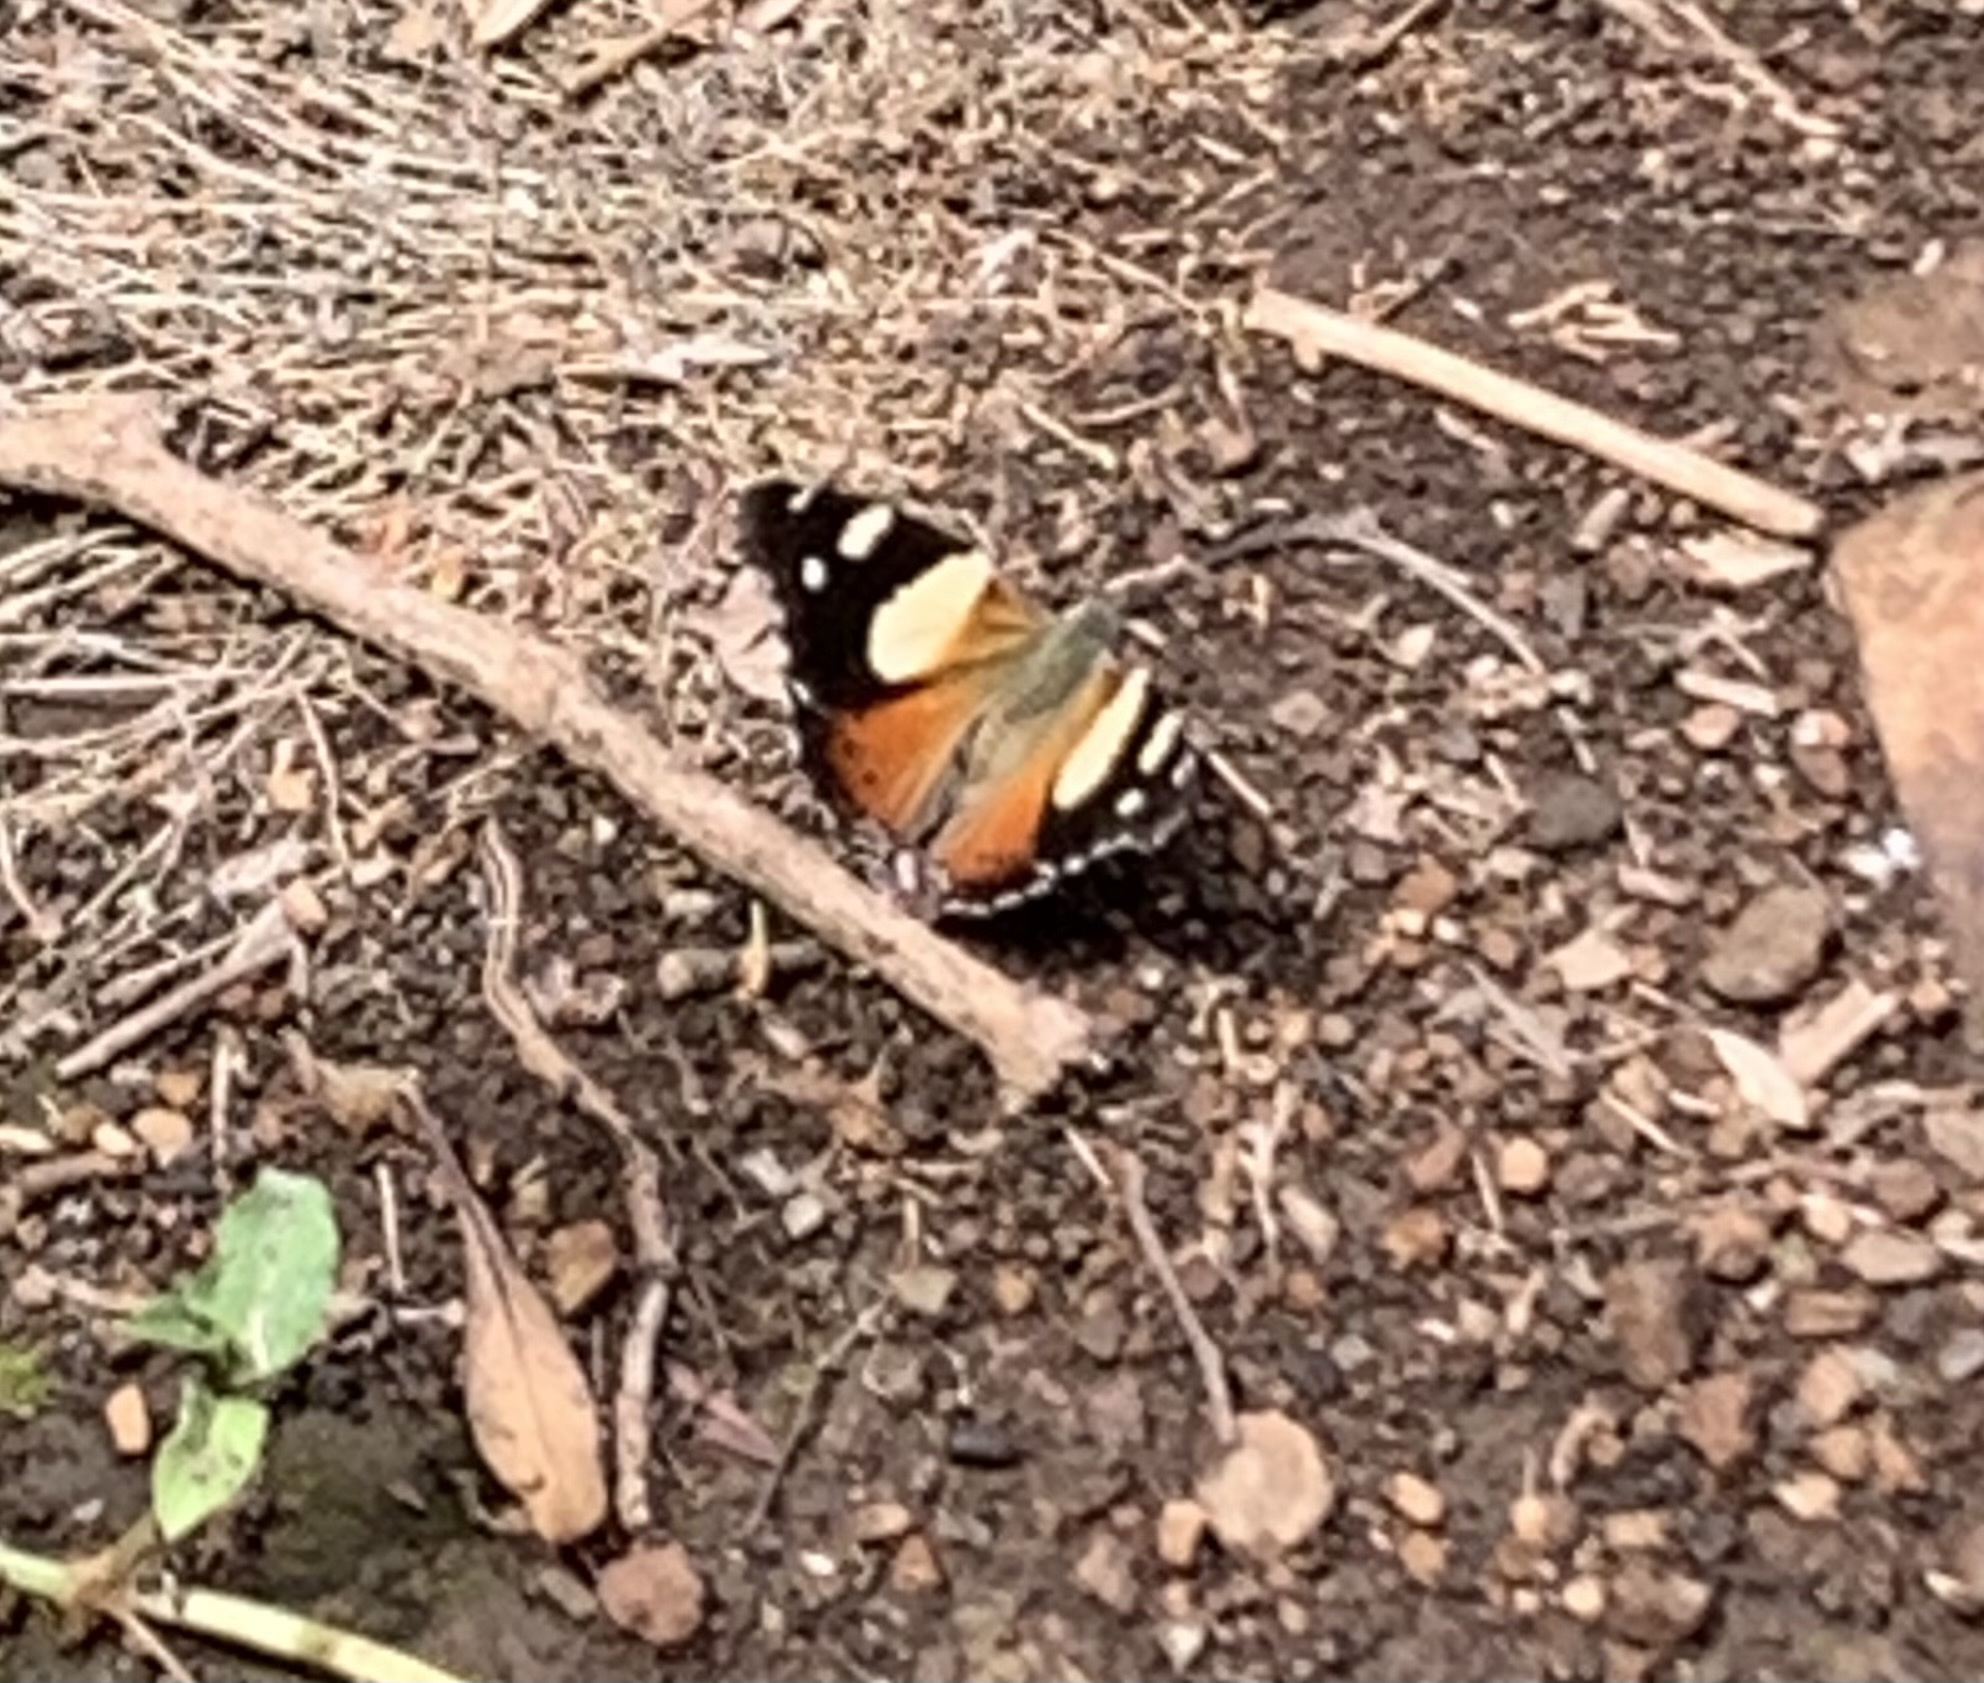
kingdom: Animalia
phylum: Arthropoda
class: Insecta
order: Lepidoptera
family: Nymphalidae
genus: Vanessa
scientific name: Vanessa itea
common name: Yellow admiral
